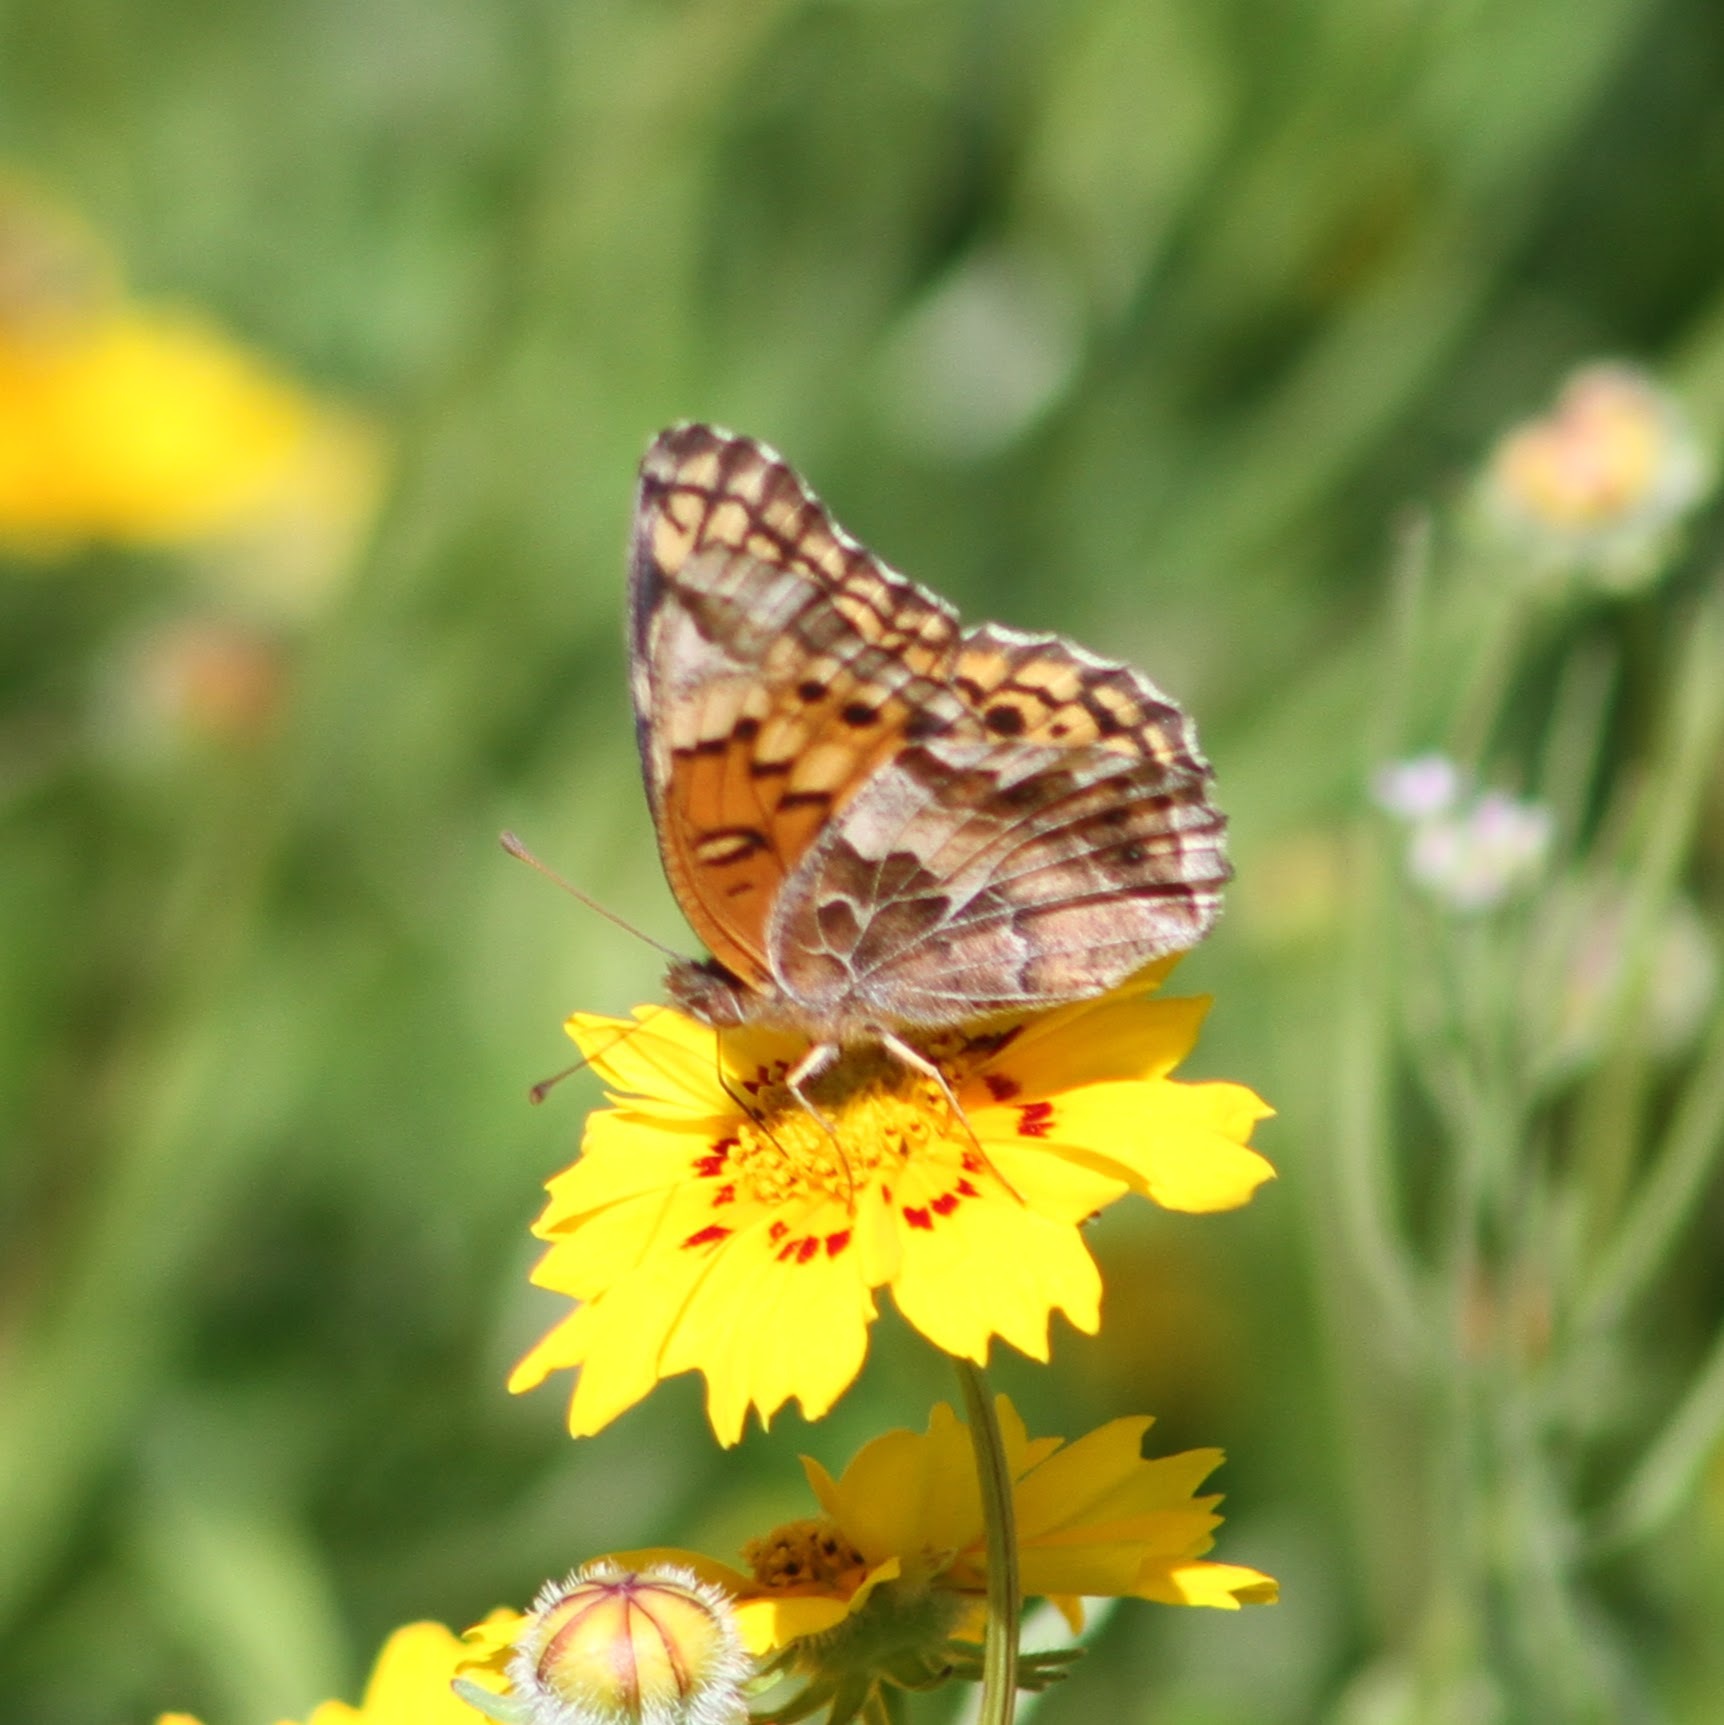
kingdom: Animalia
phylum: Arthropoda
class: Insecta
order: Lepidoptera
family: Nymphalidae
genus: Euptoieta
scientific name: Euptoieta claudia
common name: Variegated fritillary
